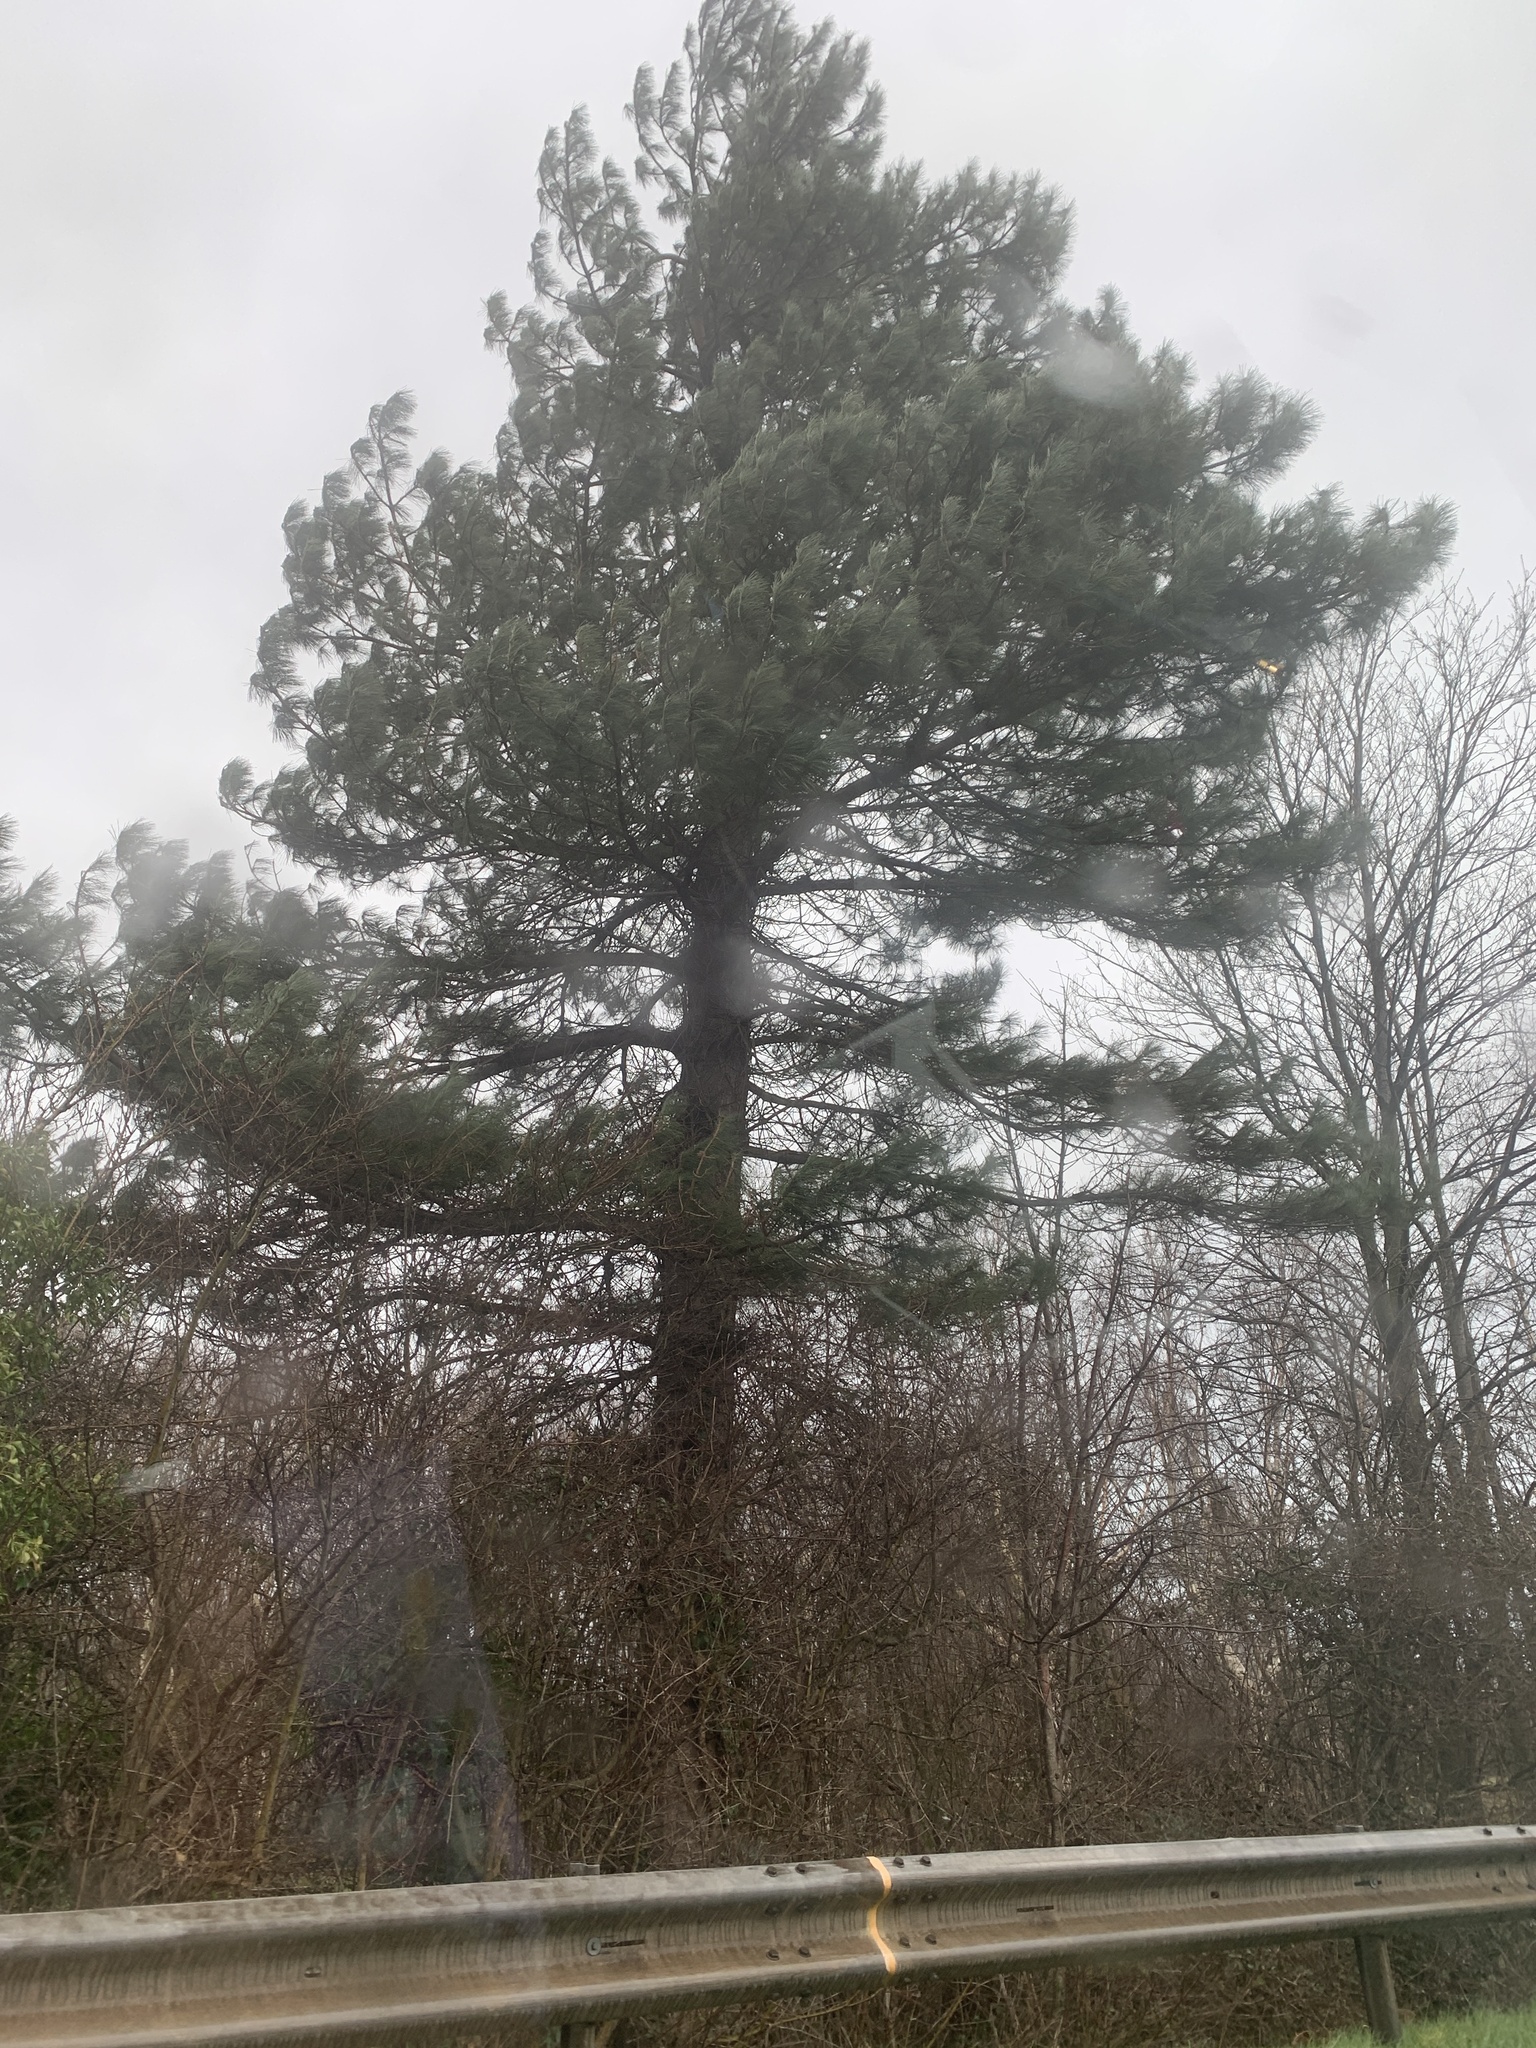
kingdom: Plantae
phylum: Tracheophyta
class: Pinopsida
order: Pinales
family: Pinaceae
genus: Pinus
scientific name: Pinus sylvestris
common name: Scots pine
